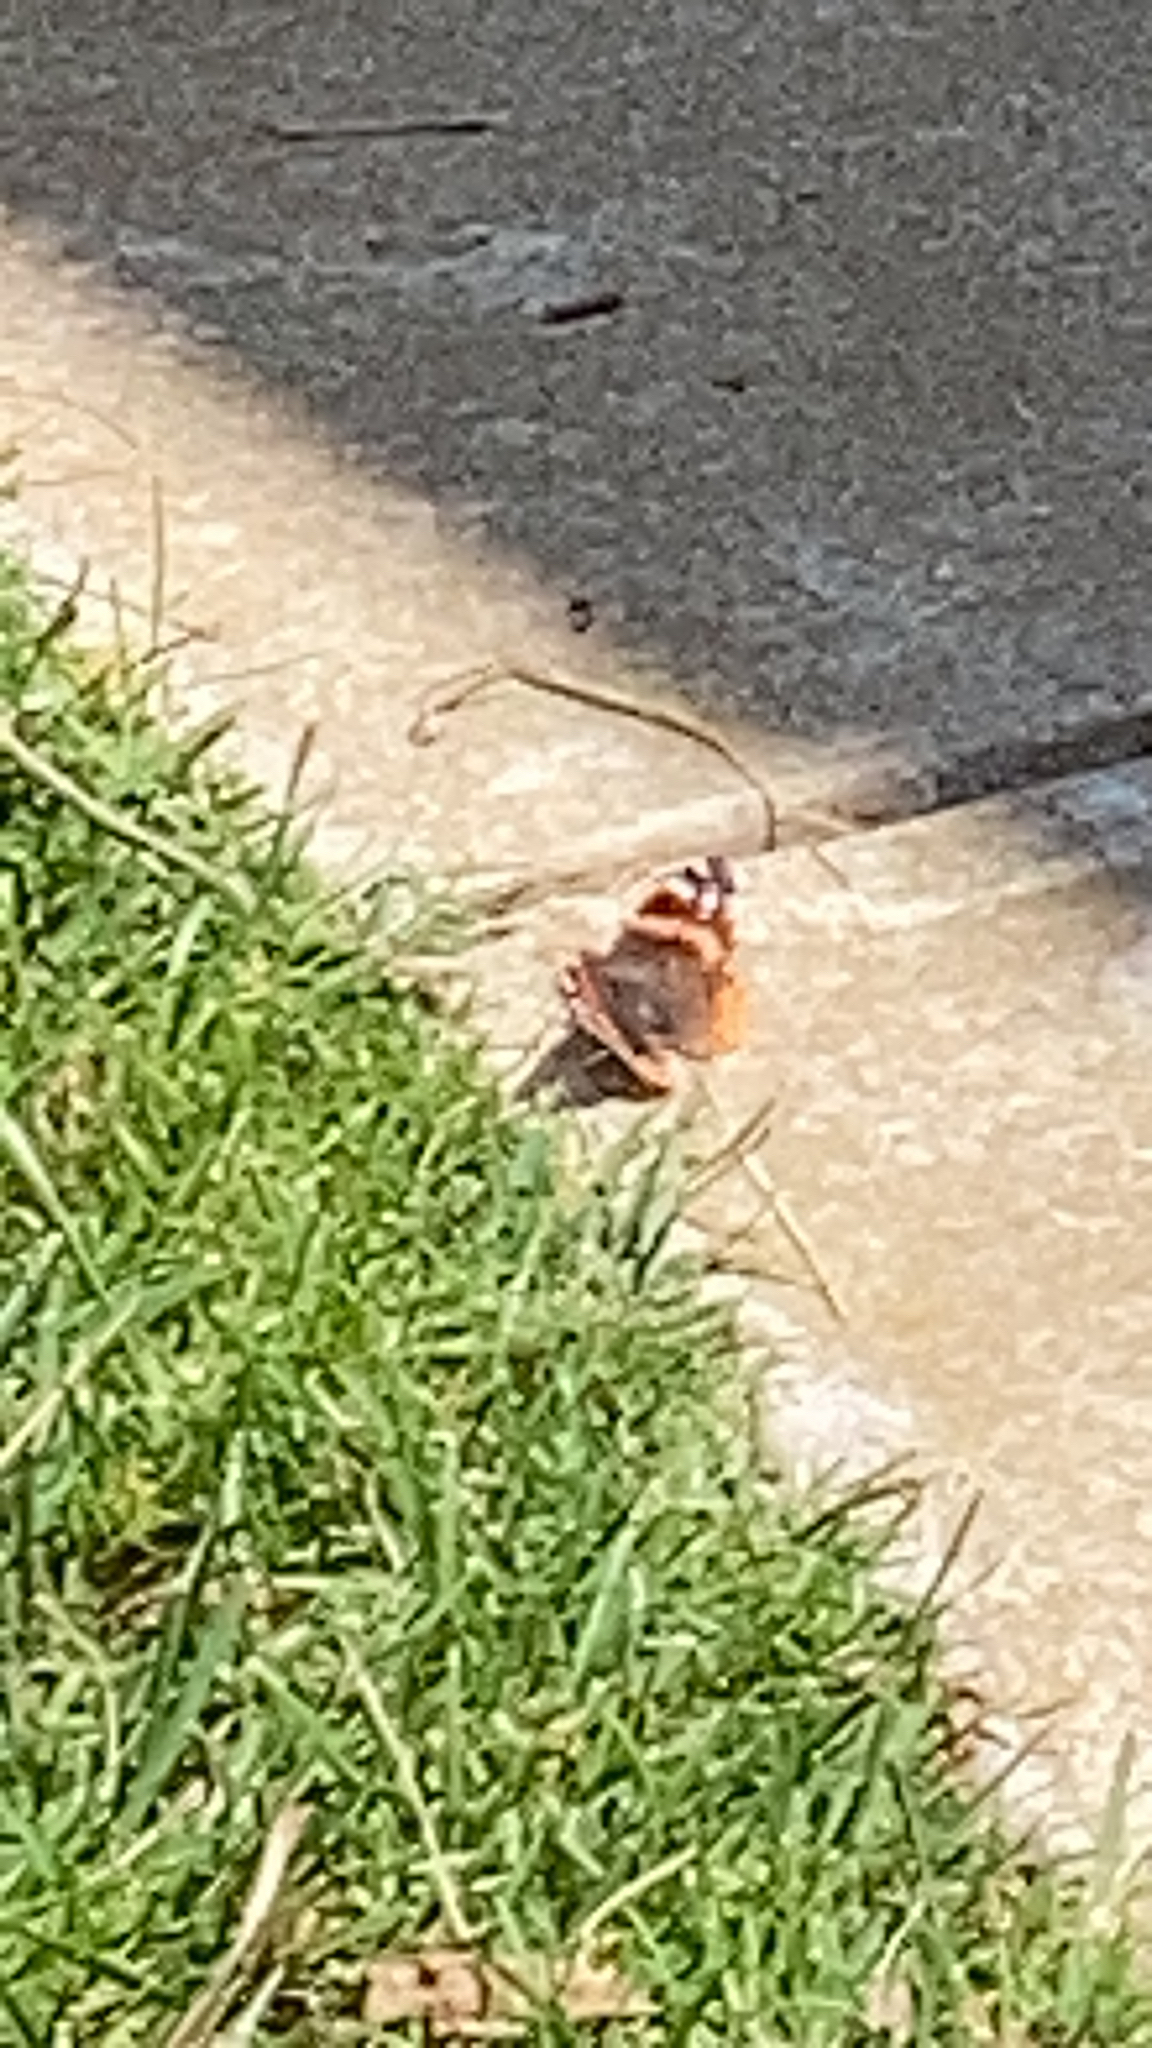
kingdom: Animalia
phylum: Arthropoda
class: Insecta
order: Lepidoptera
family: Nymphalidae
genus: Vanessa
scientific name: Vanessa atalanta
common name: Red admiral
